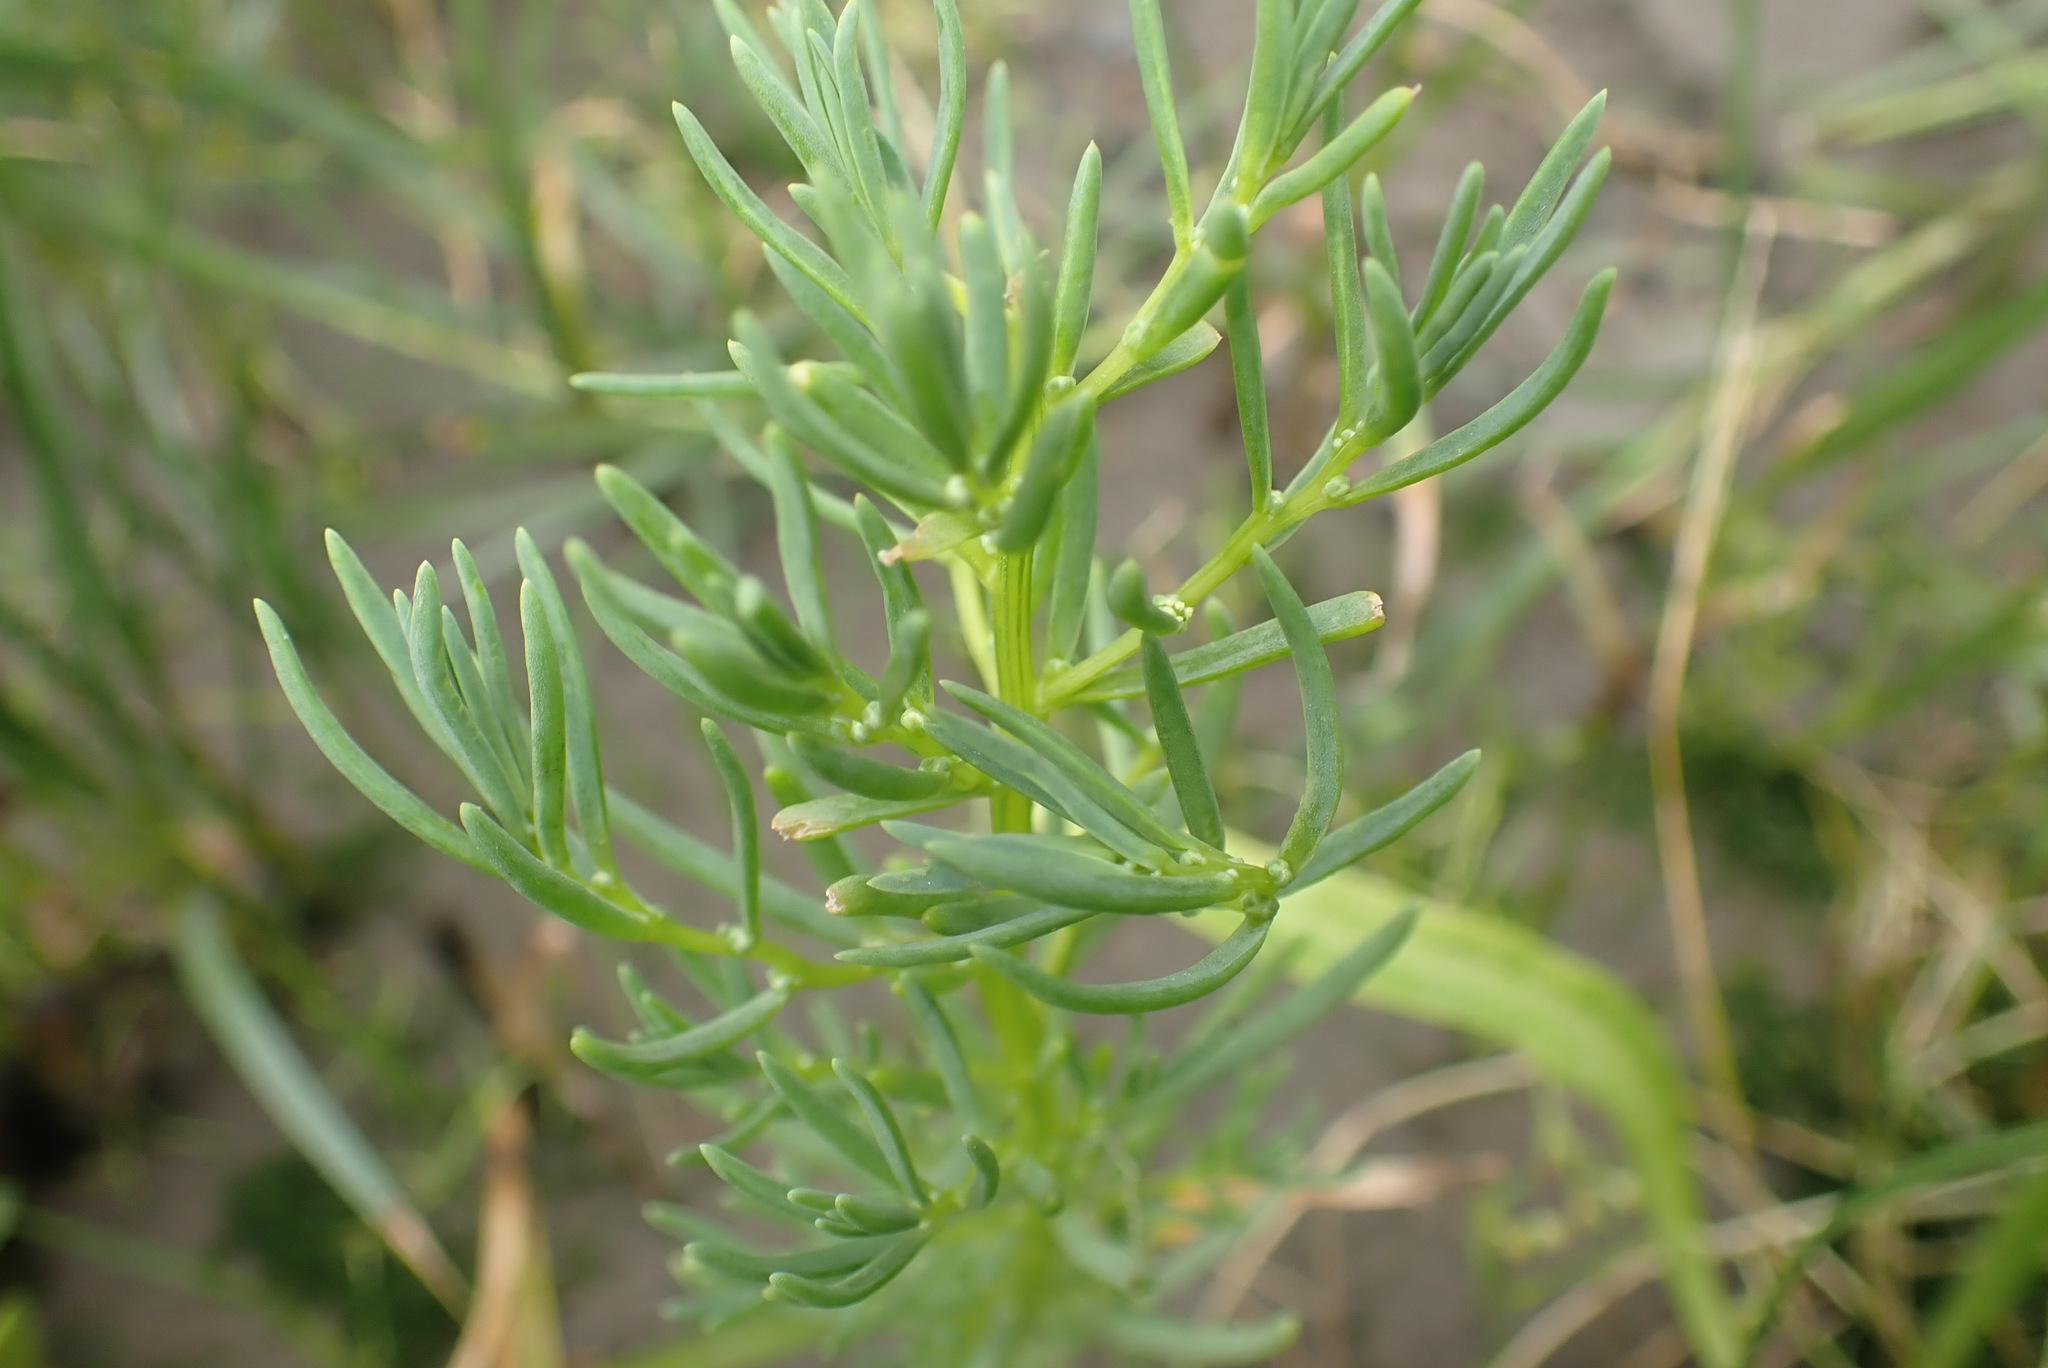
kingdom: Plantae
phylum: Tracheophyta
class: Magnoliopsida
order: Caryophyllales
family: Amaranthaceae
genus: Suaeda
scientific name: Suaeda maritima
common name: Annual sea-blite
